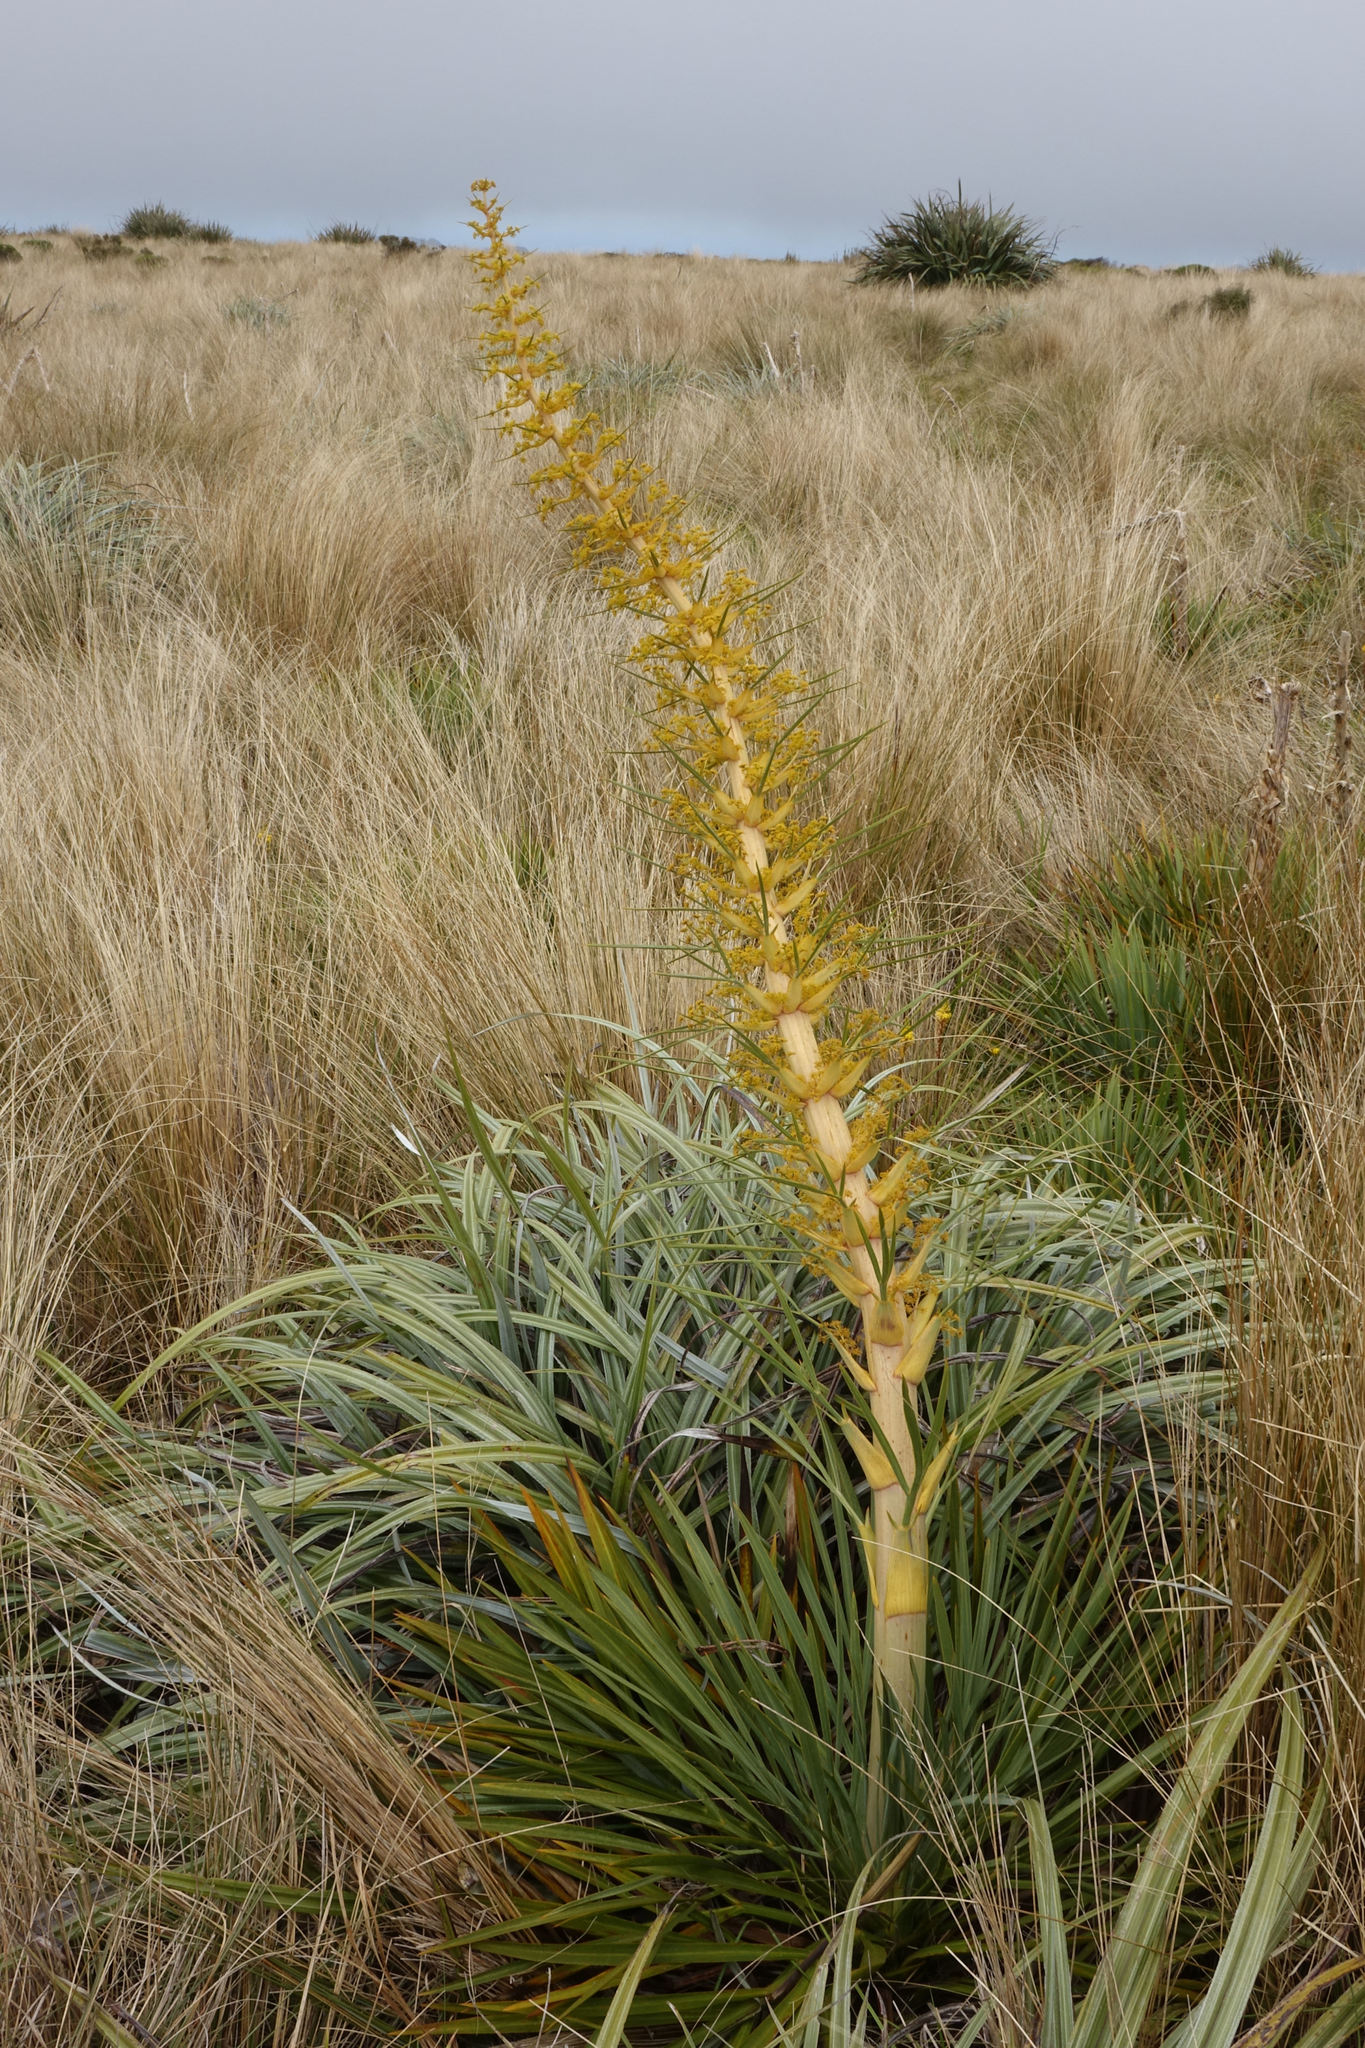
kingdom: Plantae
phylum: Tracheophyta
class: Magnoliopsida
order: Apiales
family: Apiaceae
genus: Aciphylla
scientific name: Aciphylla scott-thomsonii
